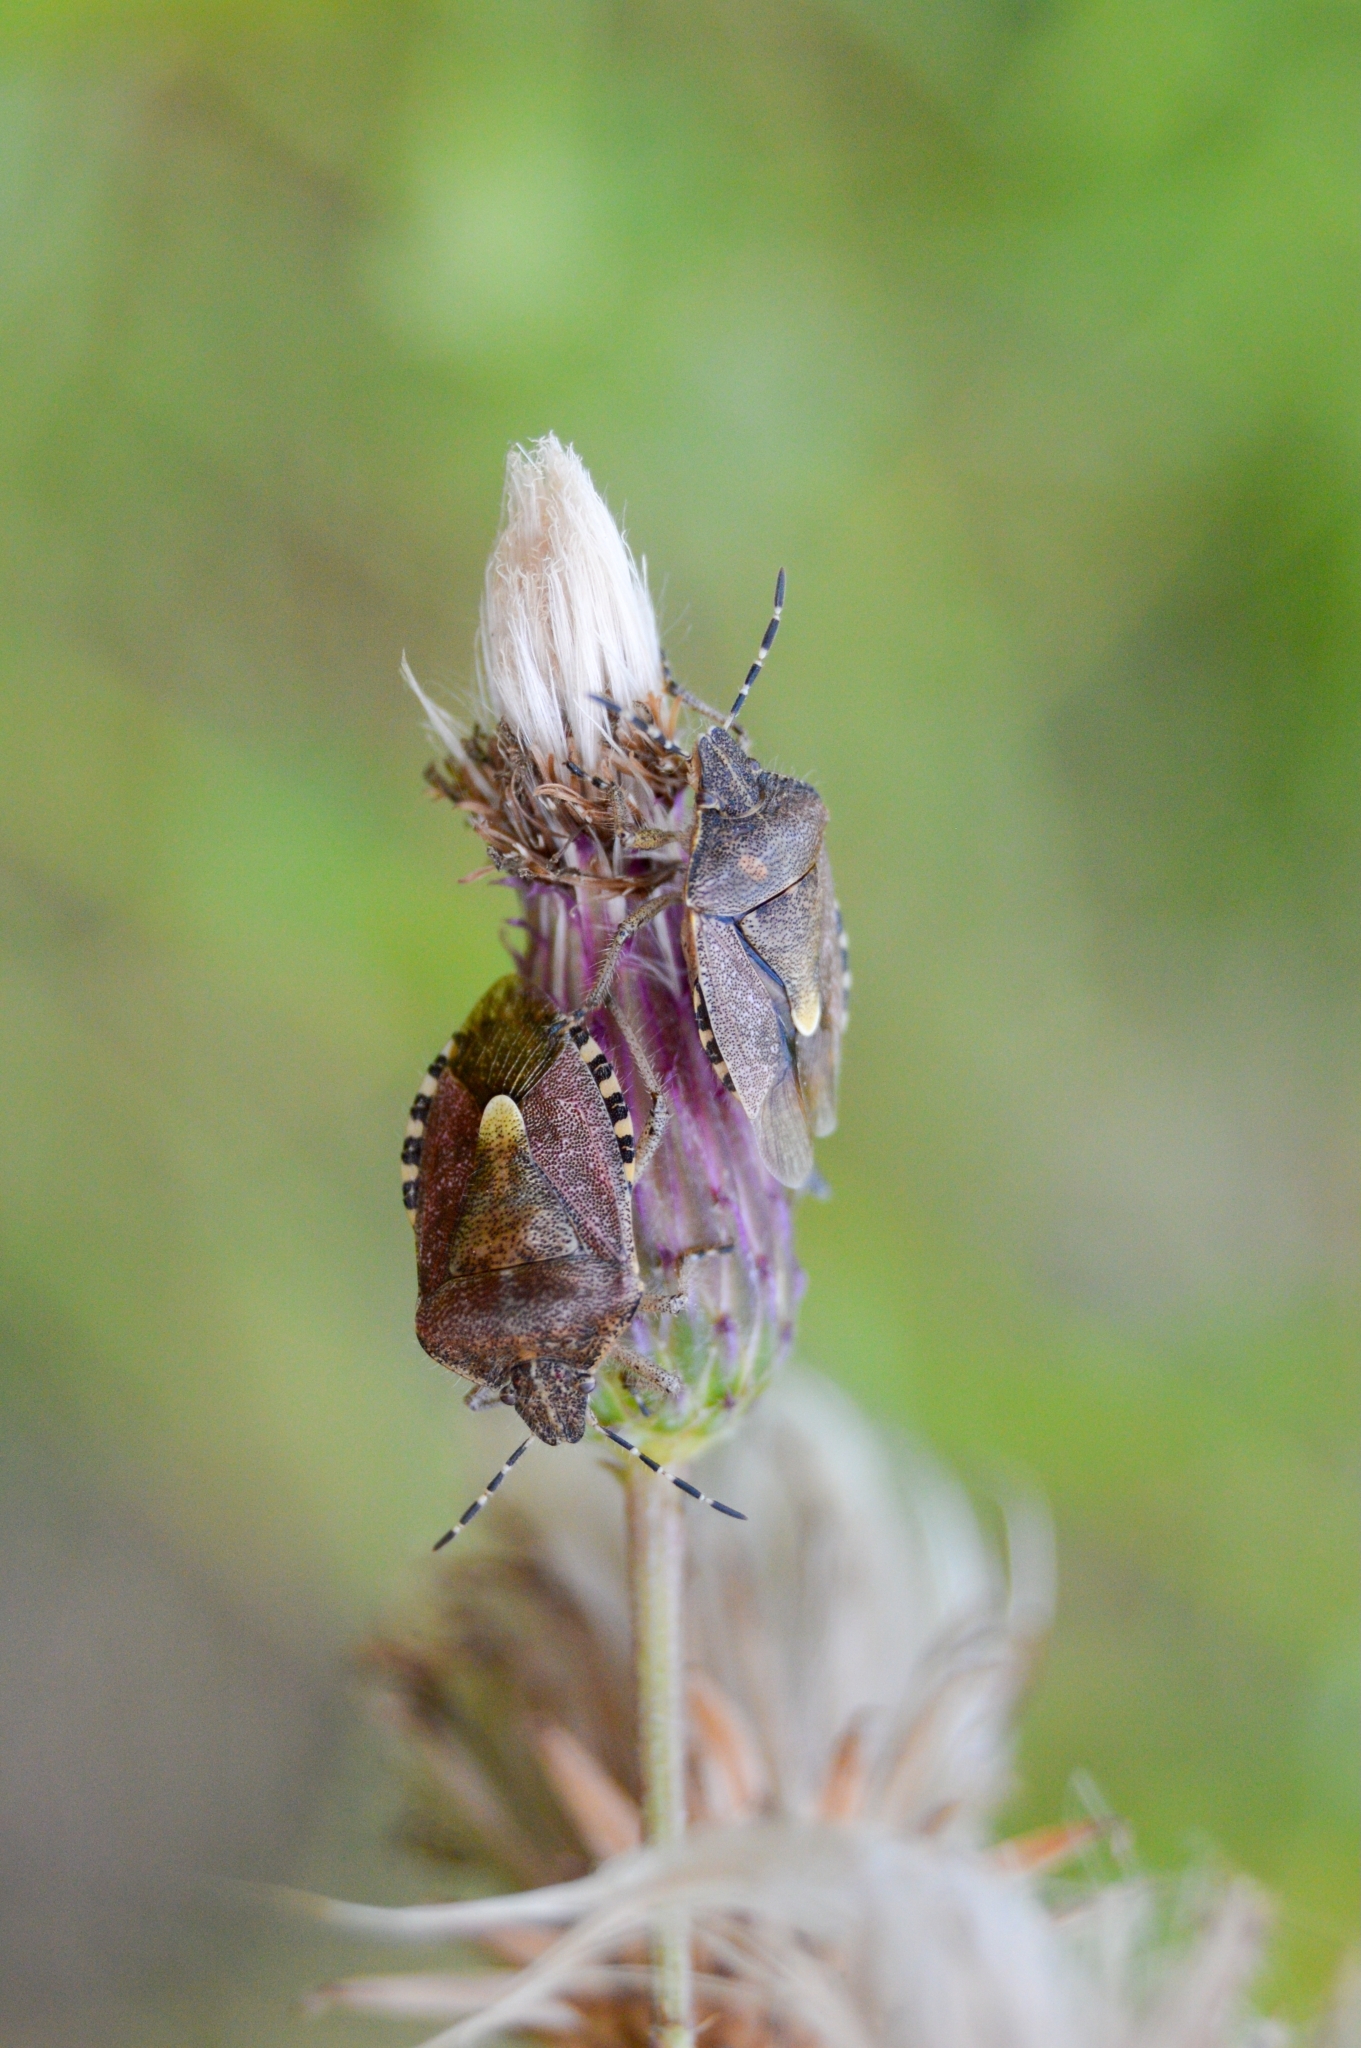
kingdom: Animalia
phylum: Arthropoda
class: Insecta
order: Hemiptera
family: Pentatomidae
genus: Dolycoris
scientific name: Dolycoris baccarum
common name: Sloe bug
